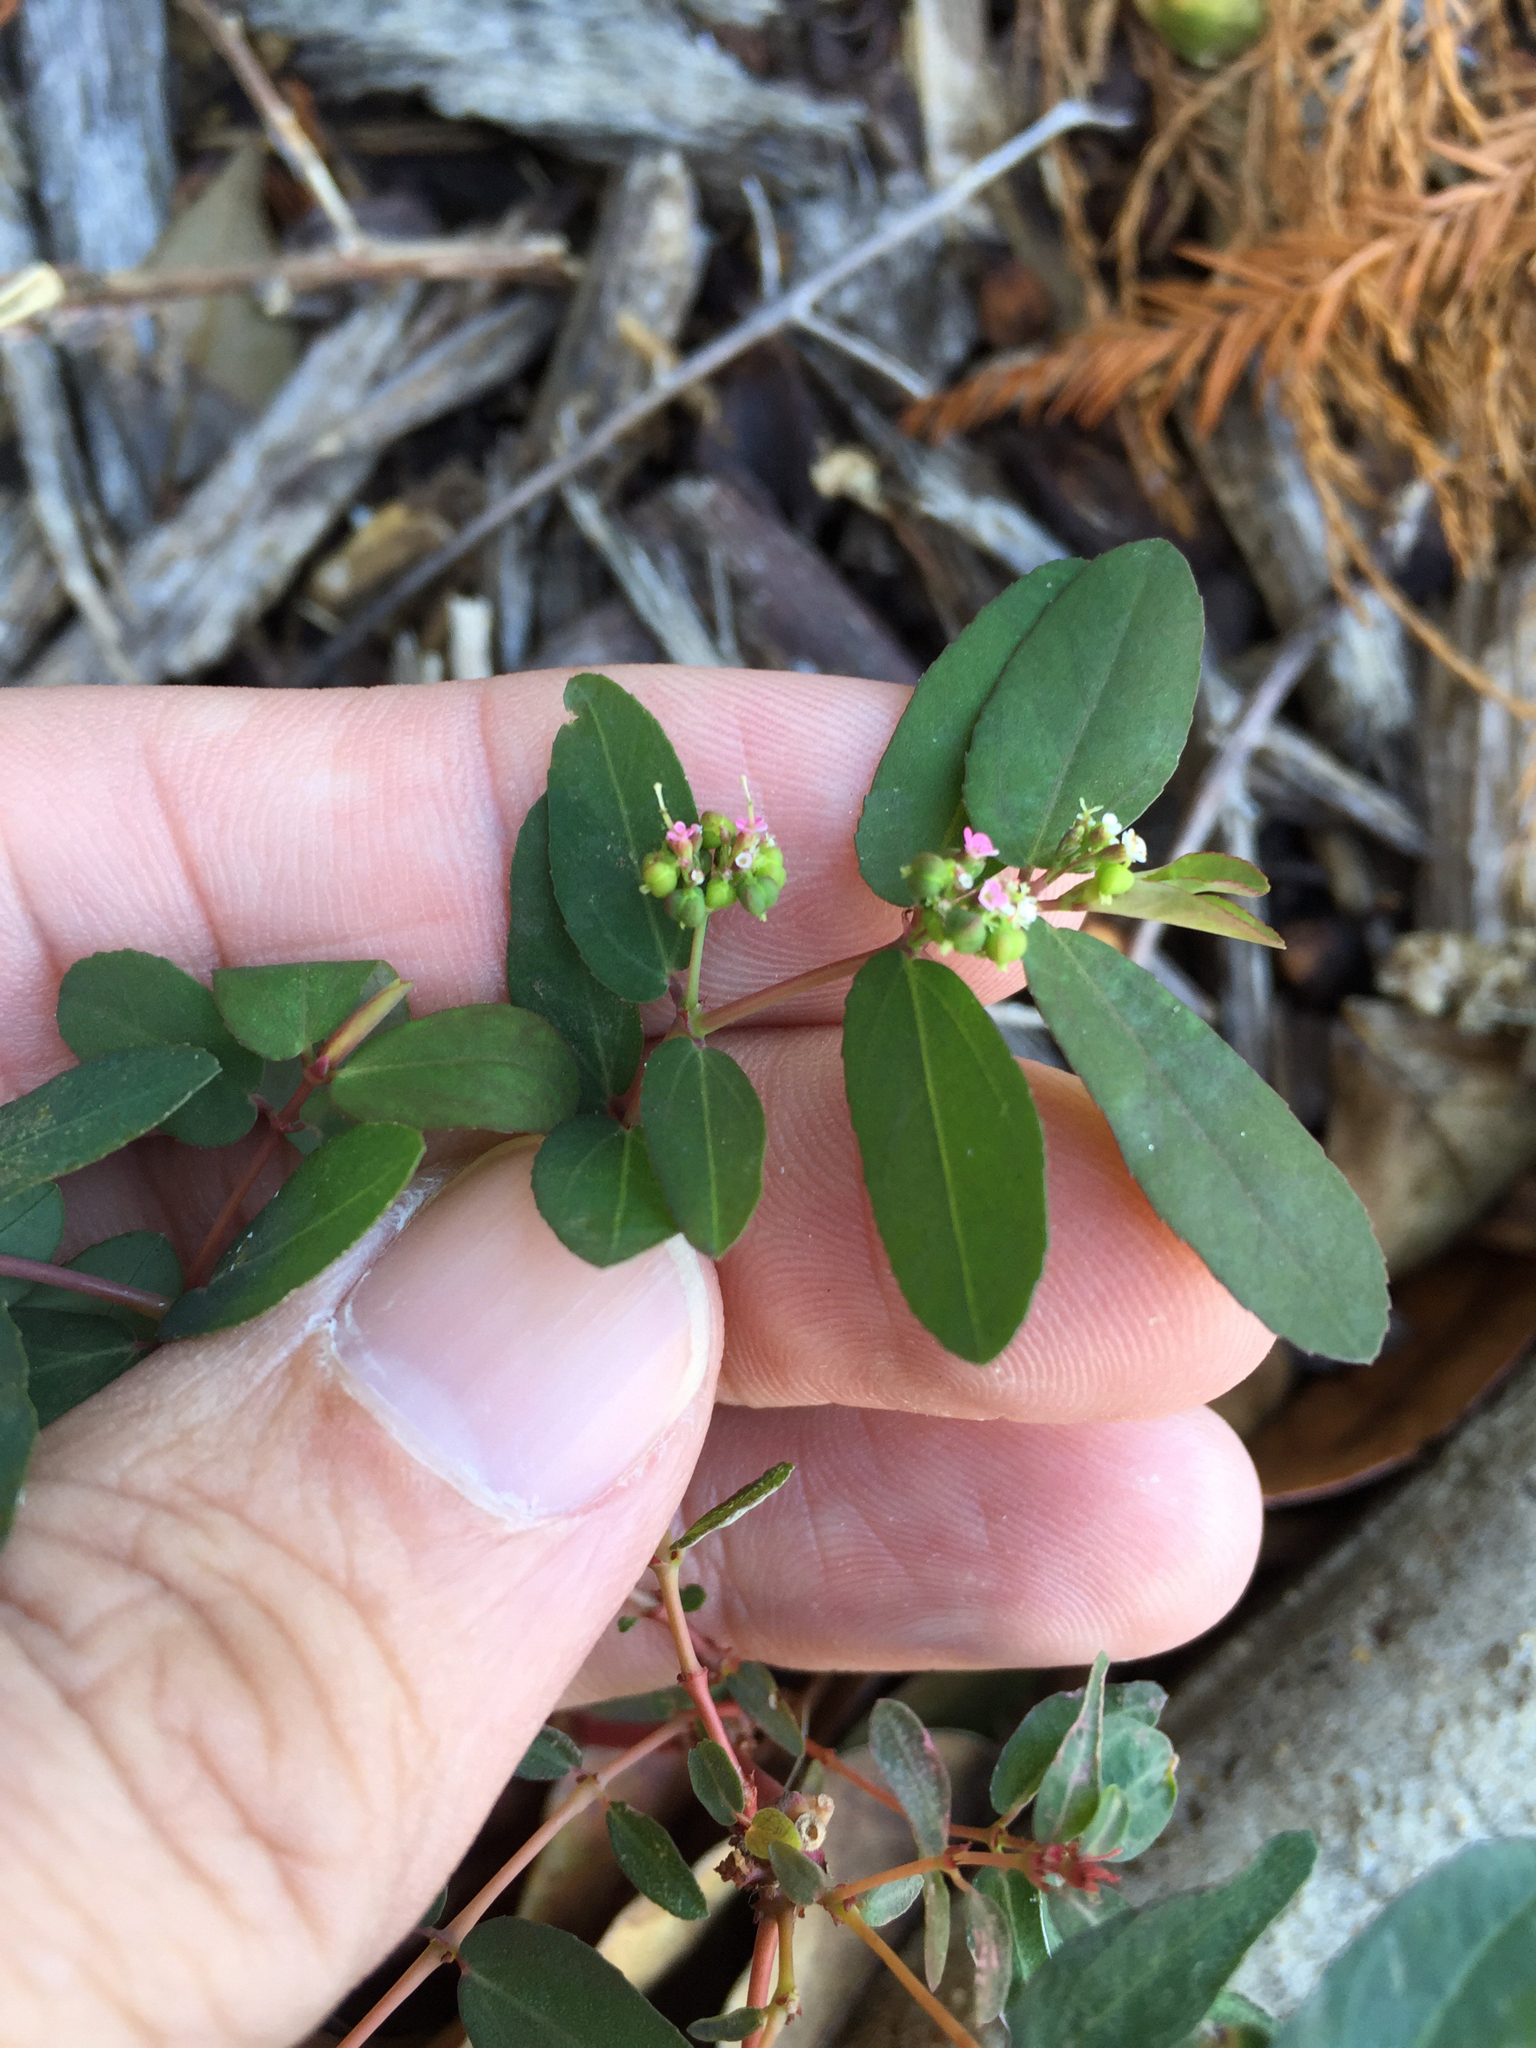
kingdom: Plantae
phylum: Tracheophyta
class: Magnoliopsida
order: Malpighiales
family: Euphorbiaceae
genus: Euphorbia
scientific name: Euphorbia hypericifolia
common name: Graceful sandmat
